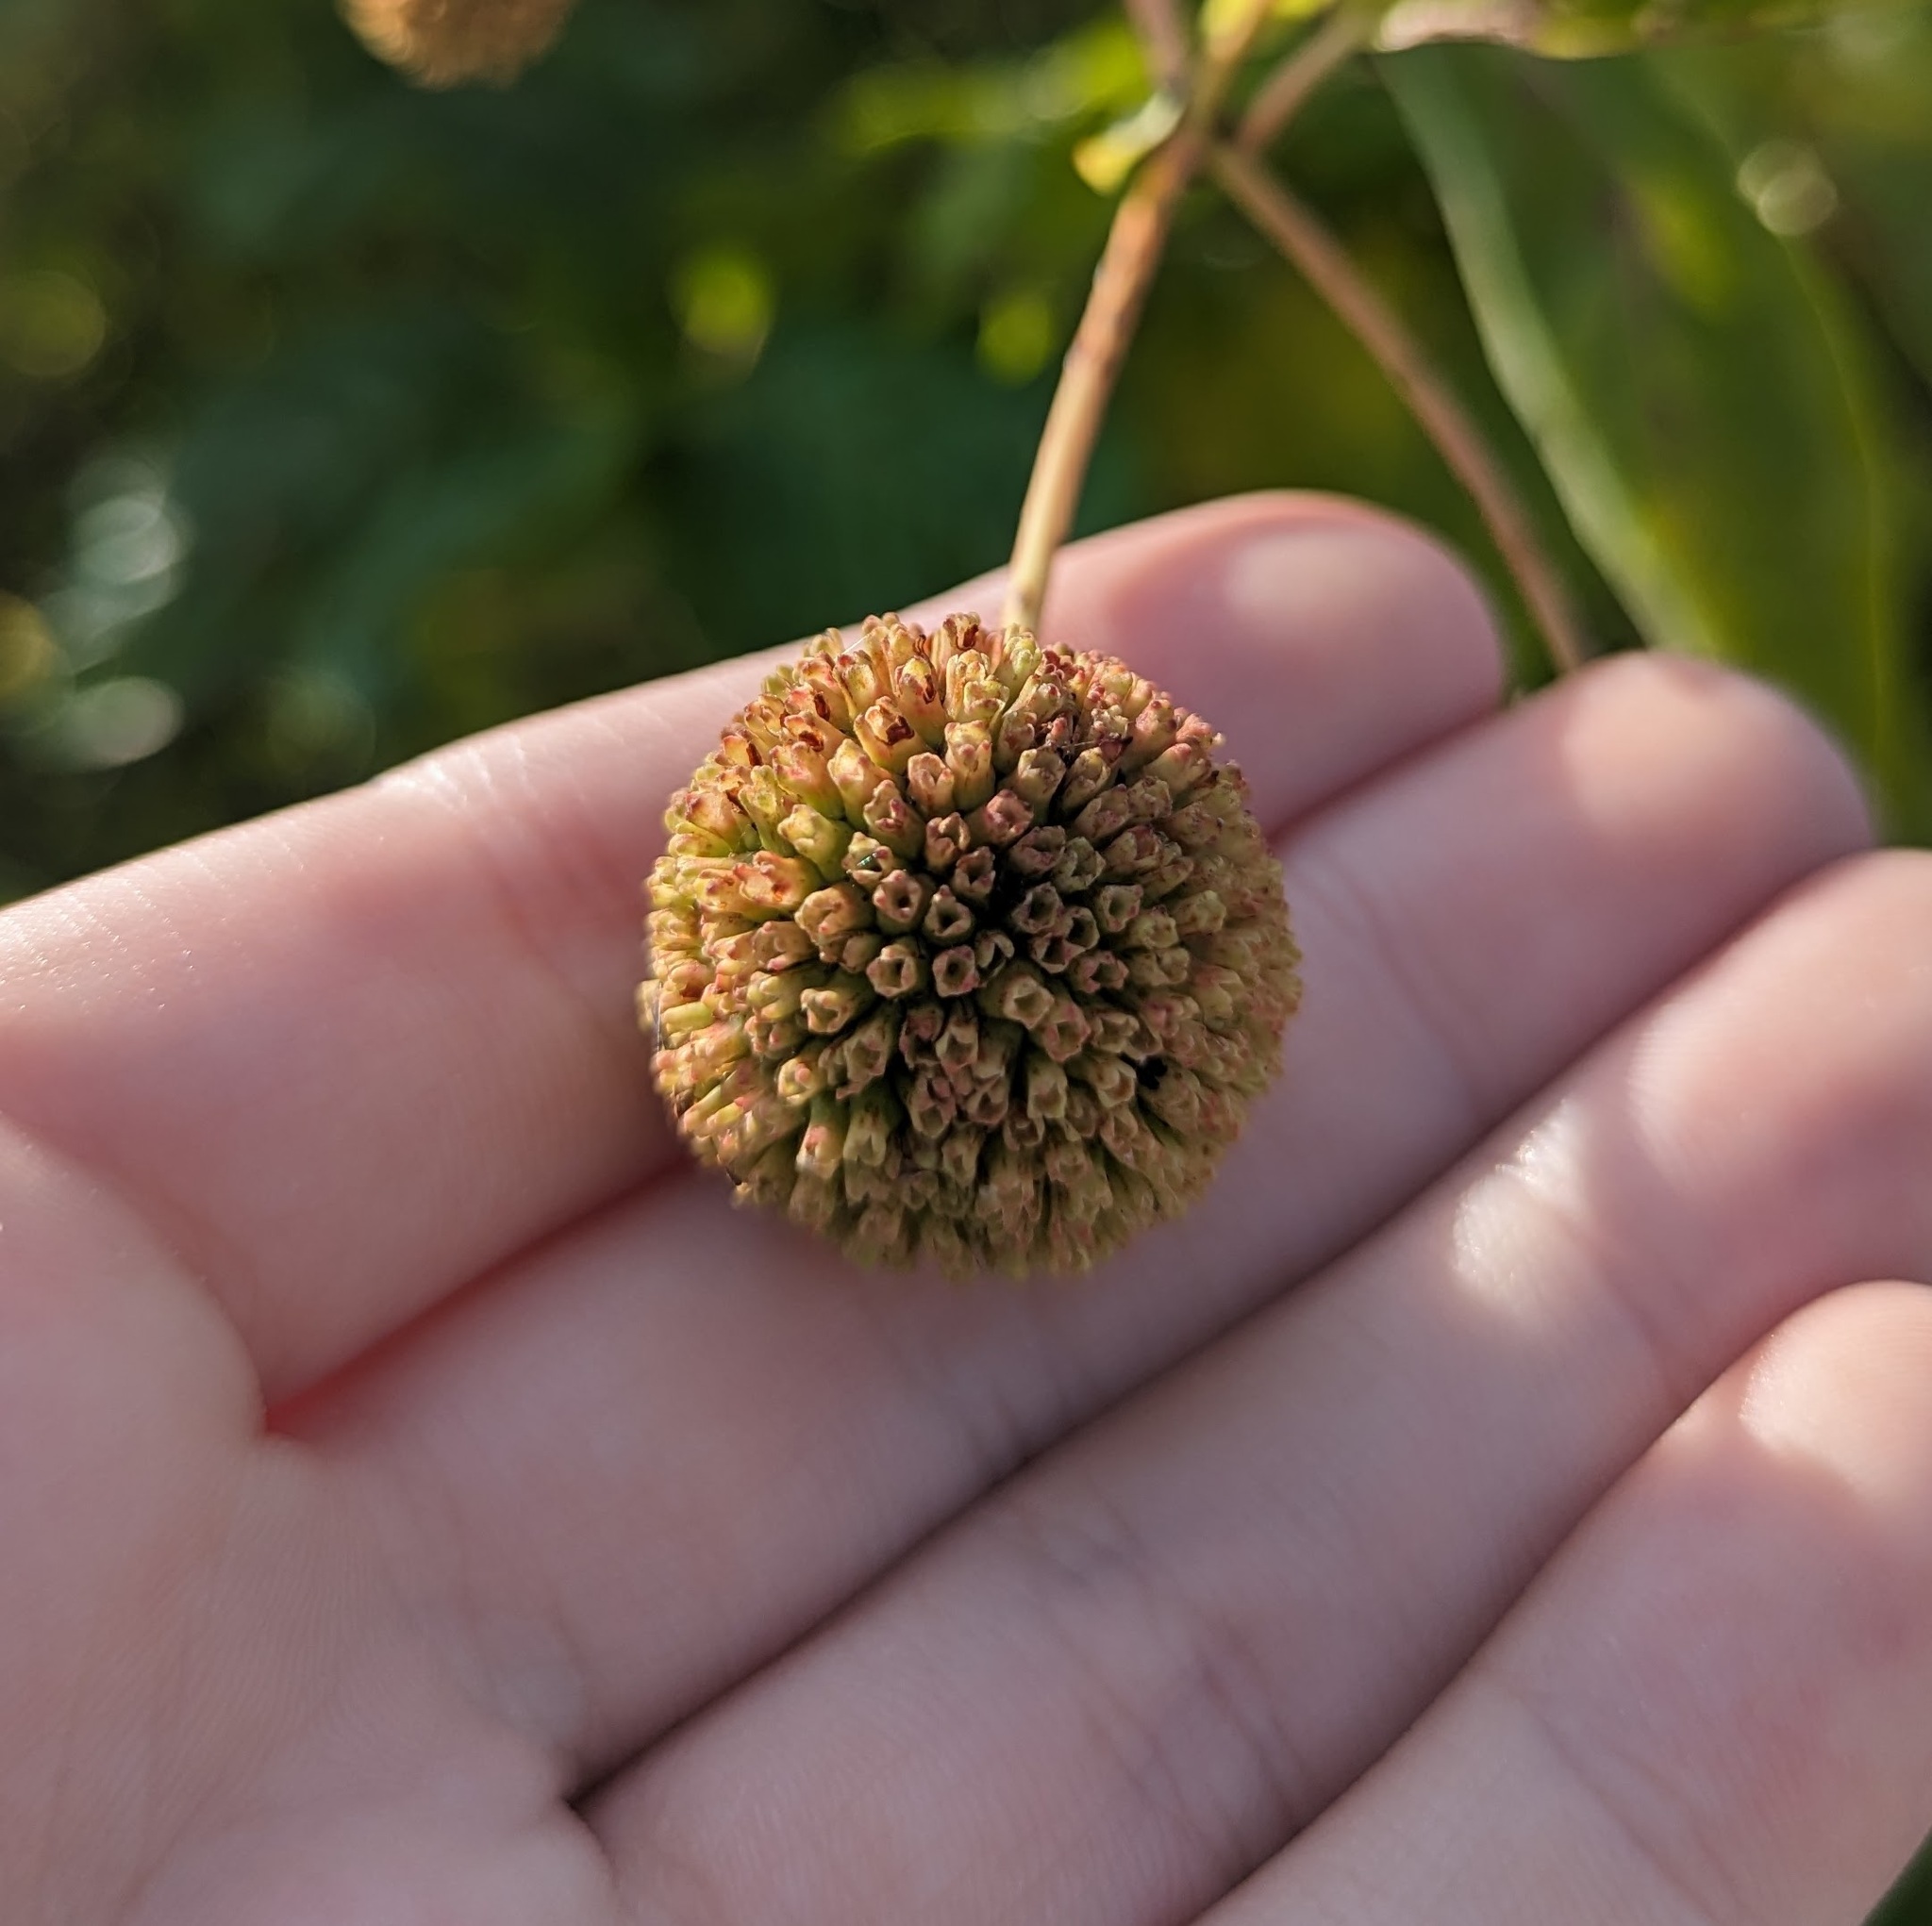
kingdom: Plantae
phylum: Tracheophyta
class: Magnoliopsida
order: Gentianales
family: Rubiaceae
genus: Cephalanthus
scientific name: Cephalanthus occidentalis
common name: Button-willow
